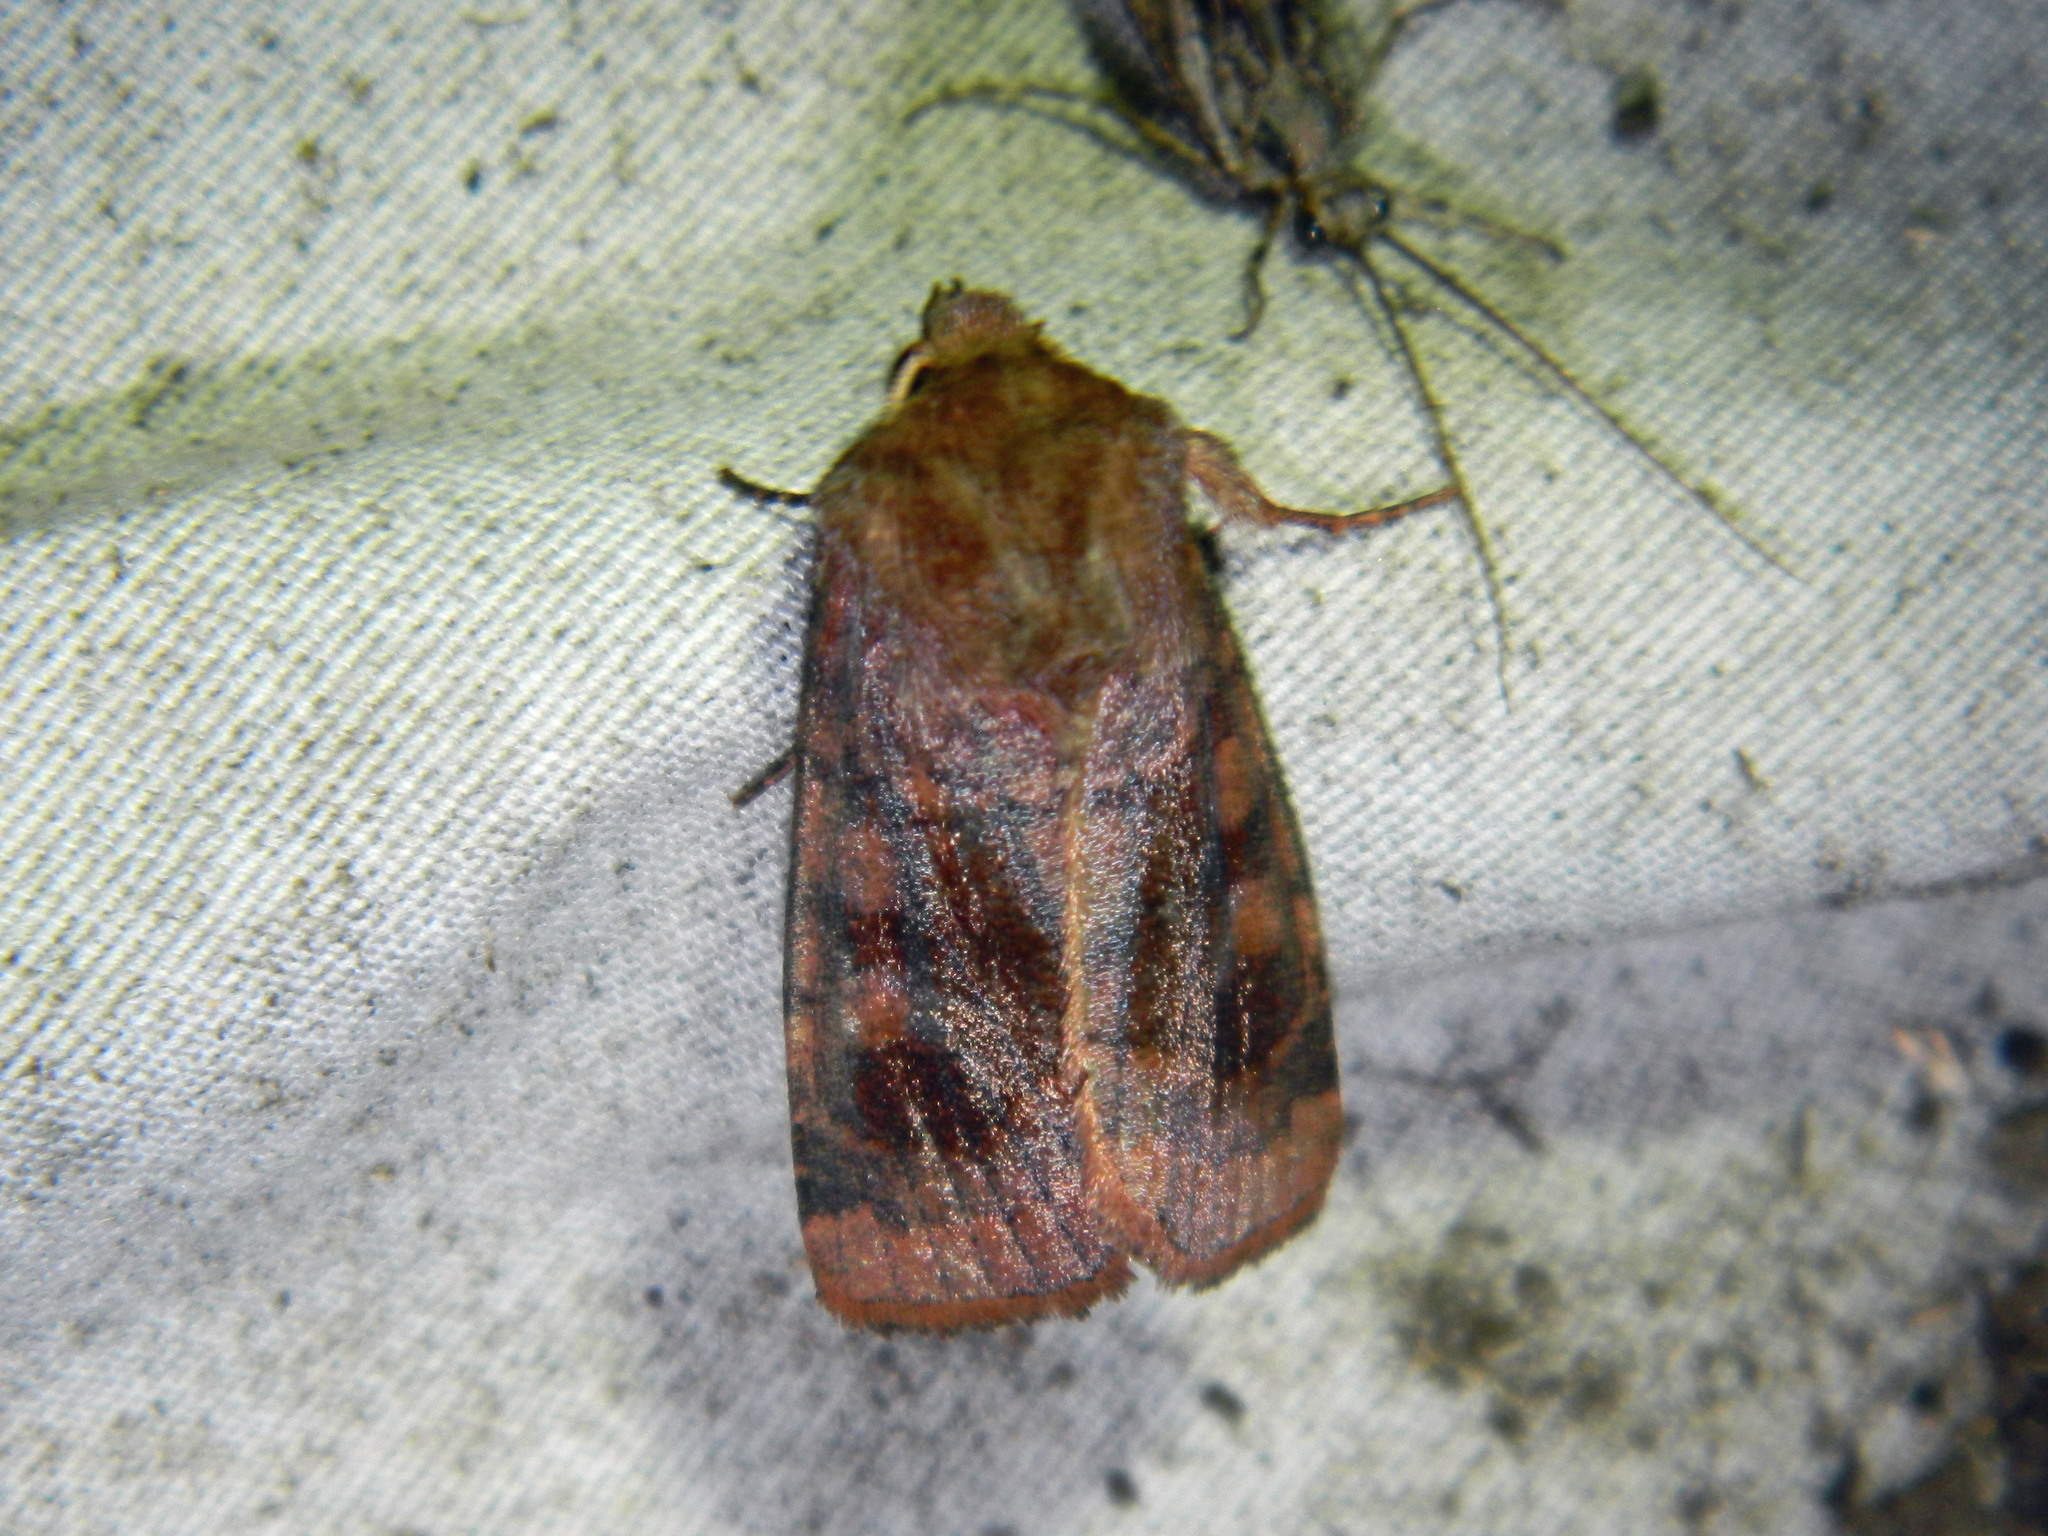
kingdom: Animalia
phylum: Arthropoda
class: Insecta
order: Lepidoptera
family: Noctuidae
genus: Nephelodes
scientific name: Nephelodes minians
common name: Bronzed cutworm
